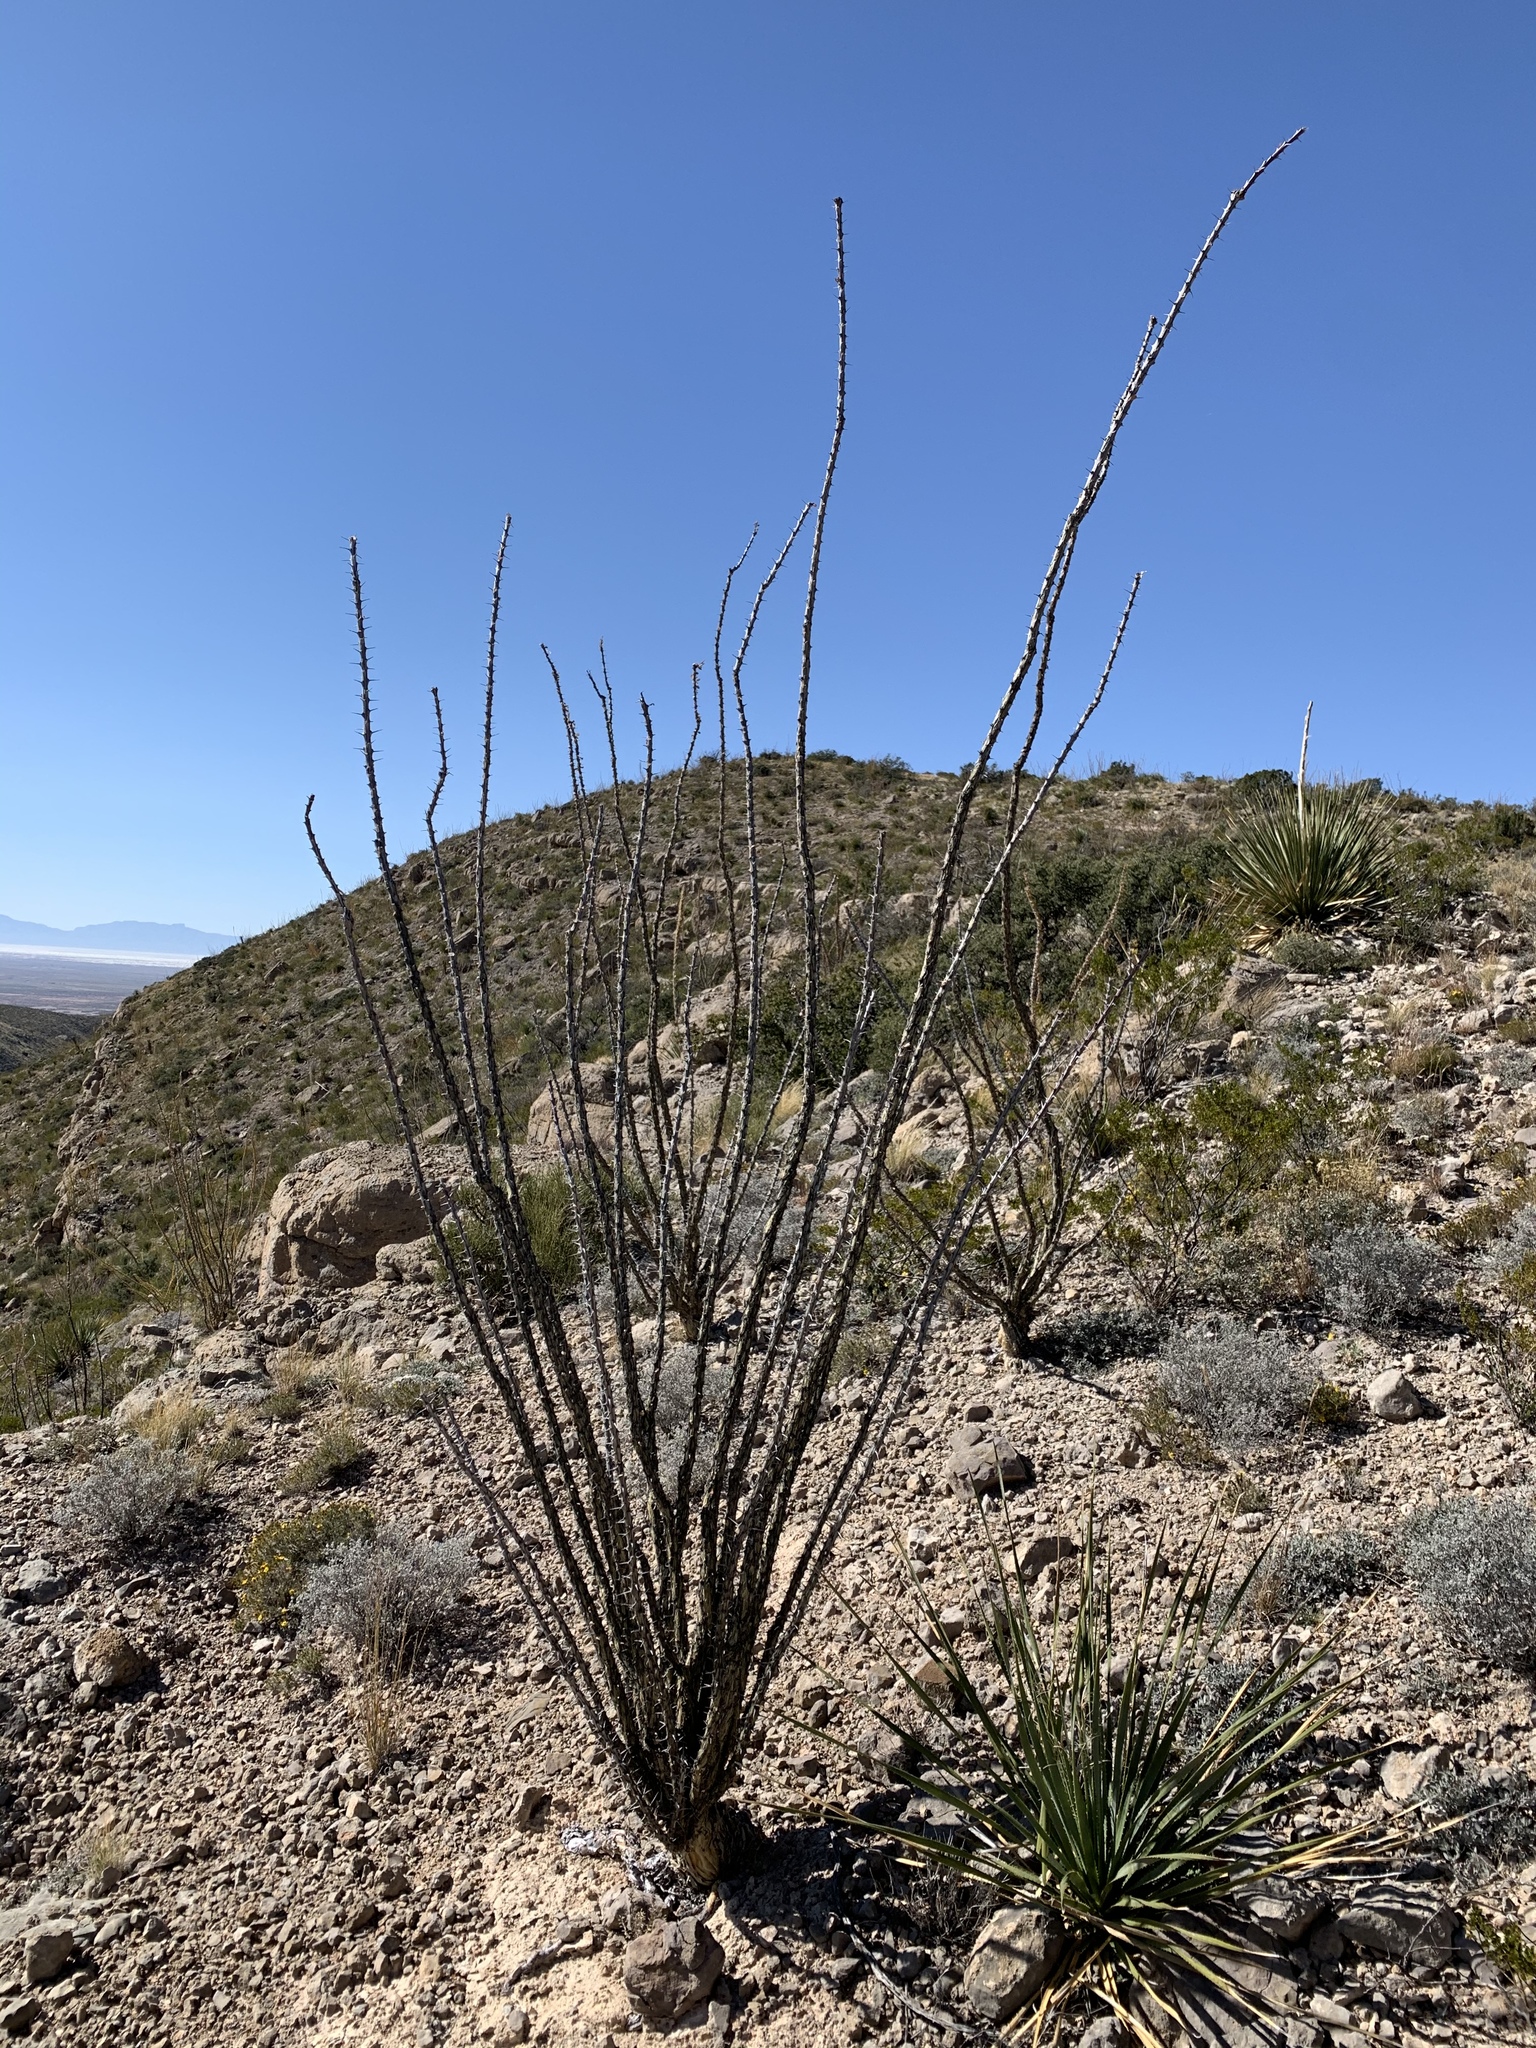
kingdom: Plantae
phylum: Tracheophyta
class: Magnoliopsida
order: Ericales
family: Fouquieriaceae
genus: Fouquieria
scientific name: Fouquieria splendens
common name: Vine-cactus
